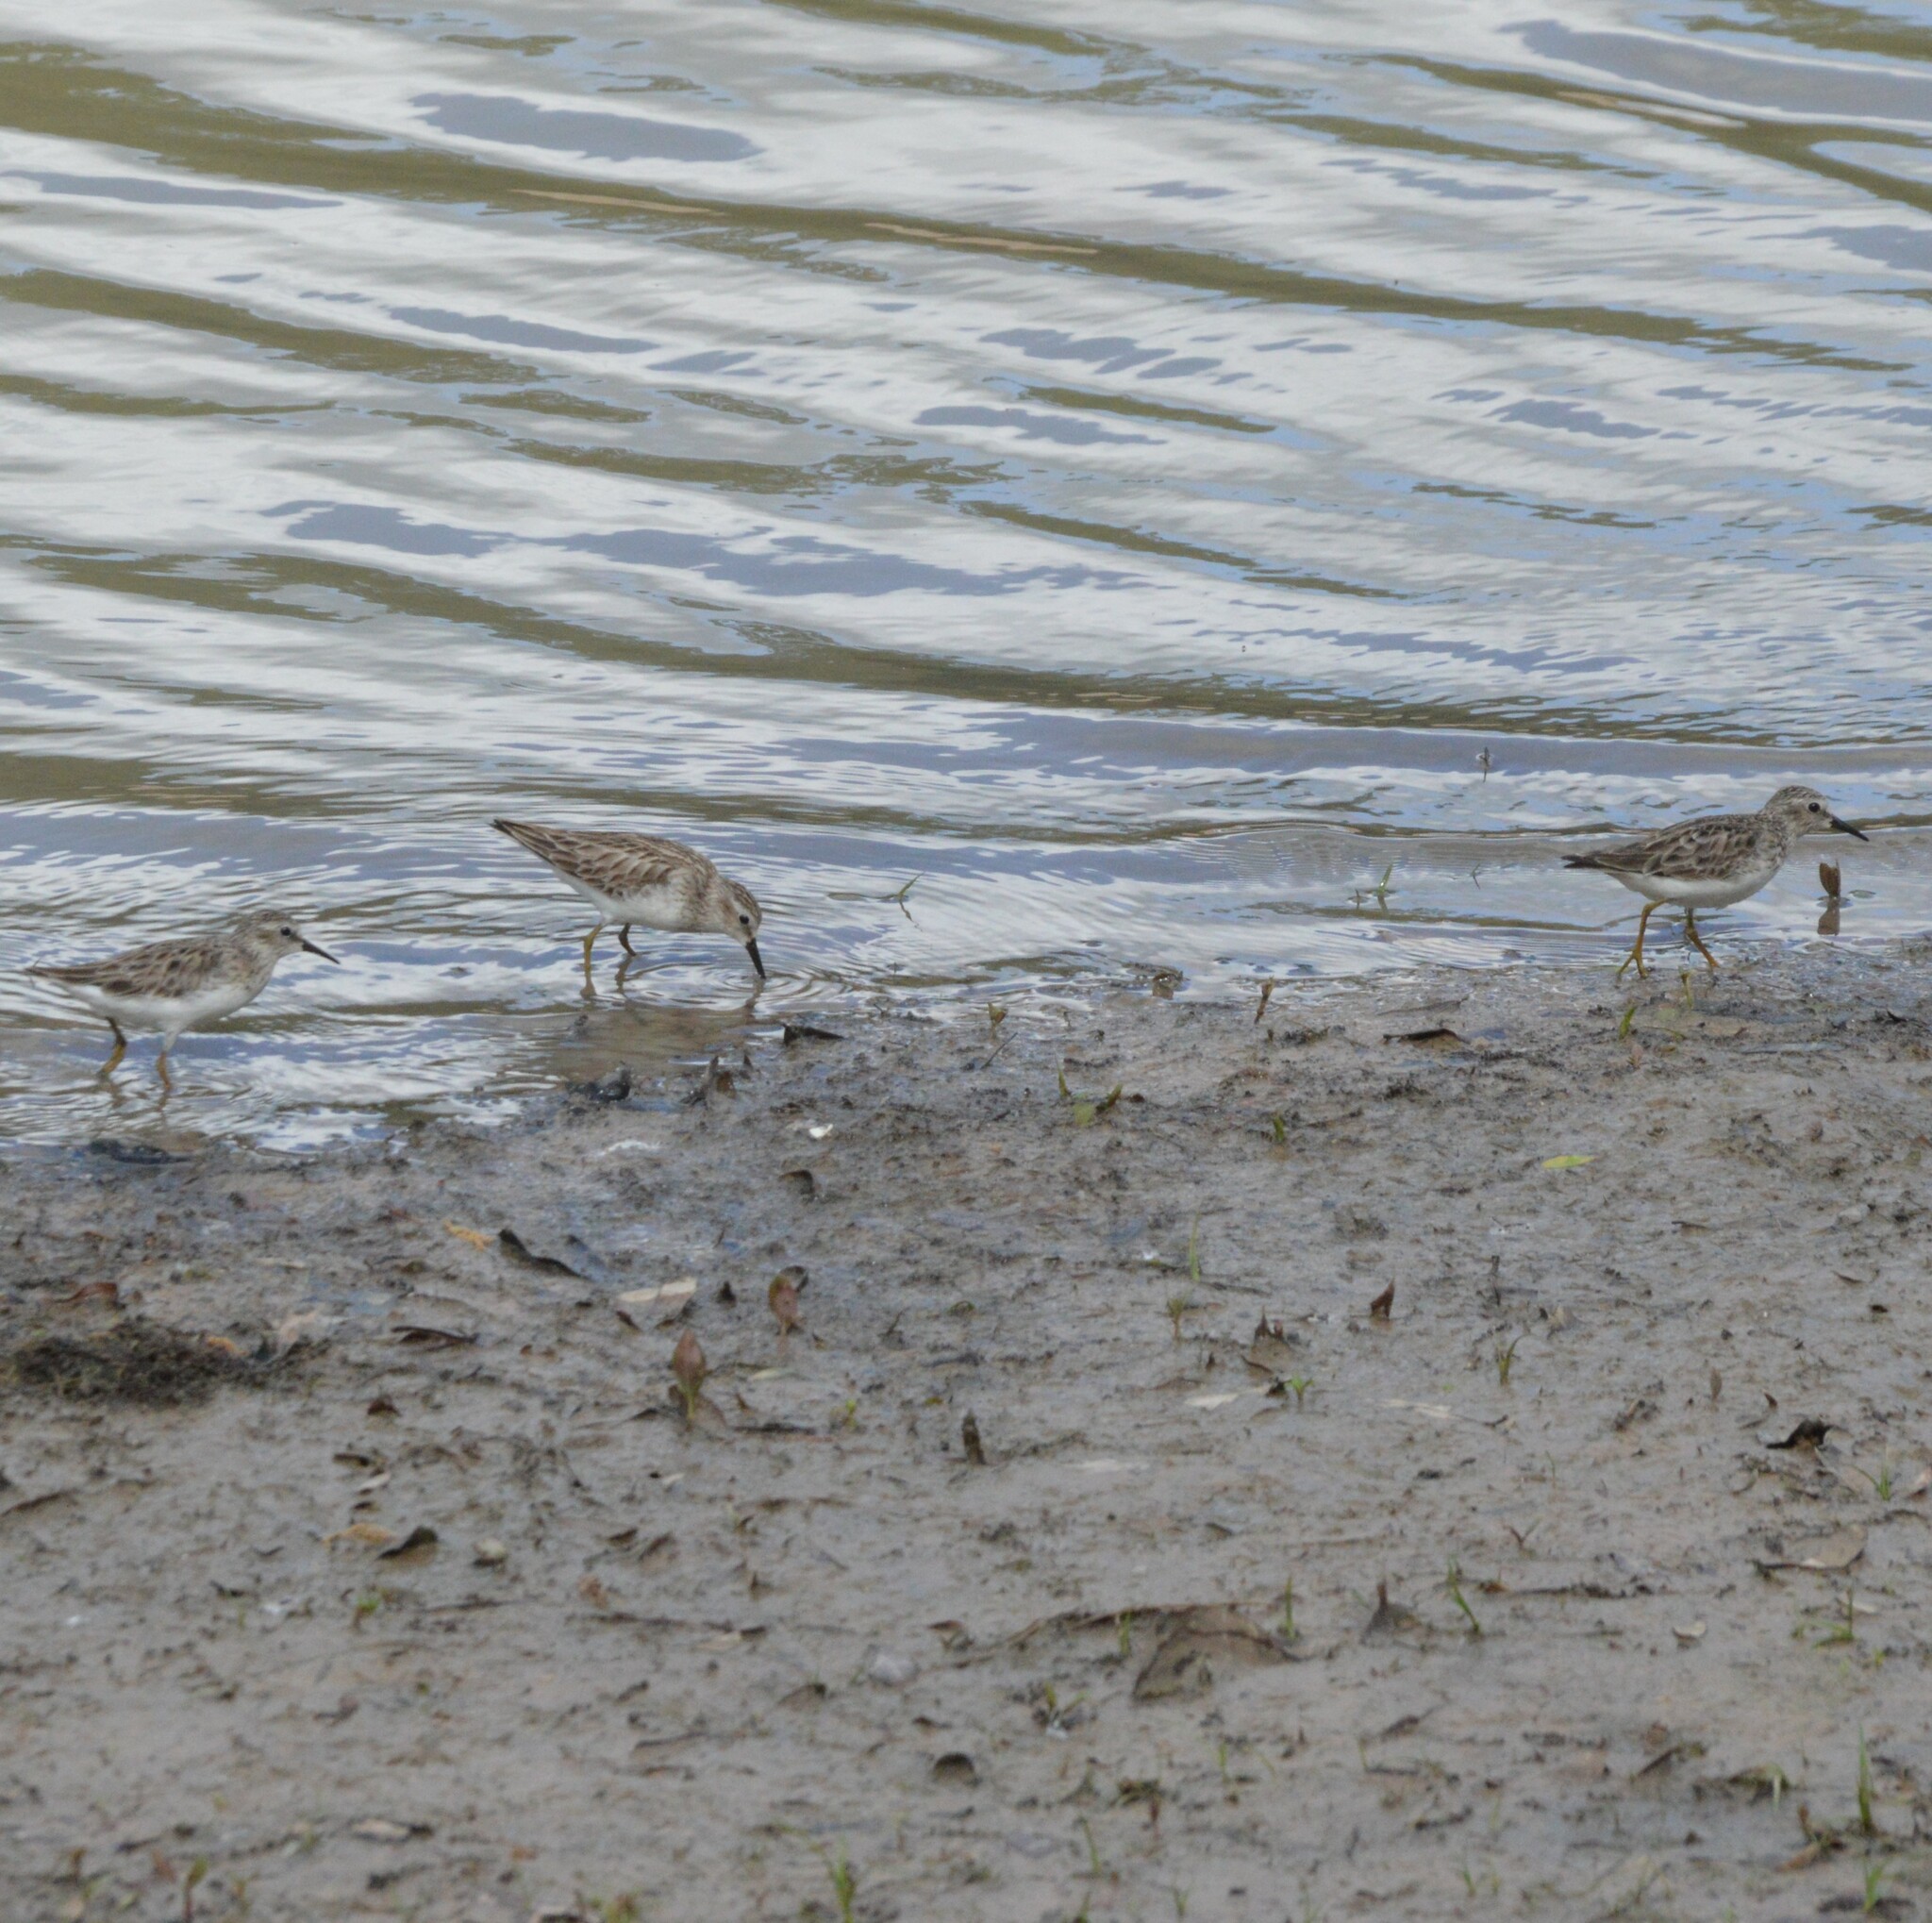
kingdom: Animalia
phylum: Chordata
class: Aves
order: Charadriiformes
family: Scolopacidae
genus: Calidris
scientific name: Calidris minutilla
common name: Least sandpiper
